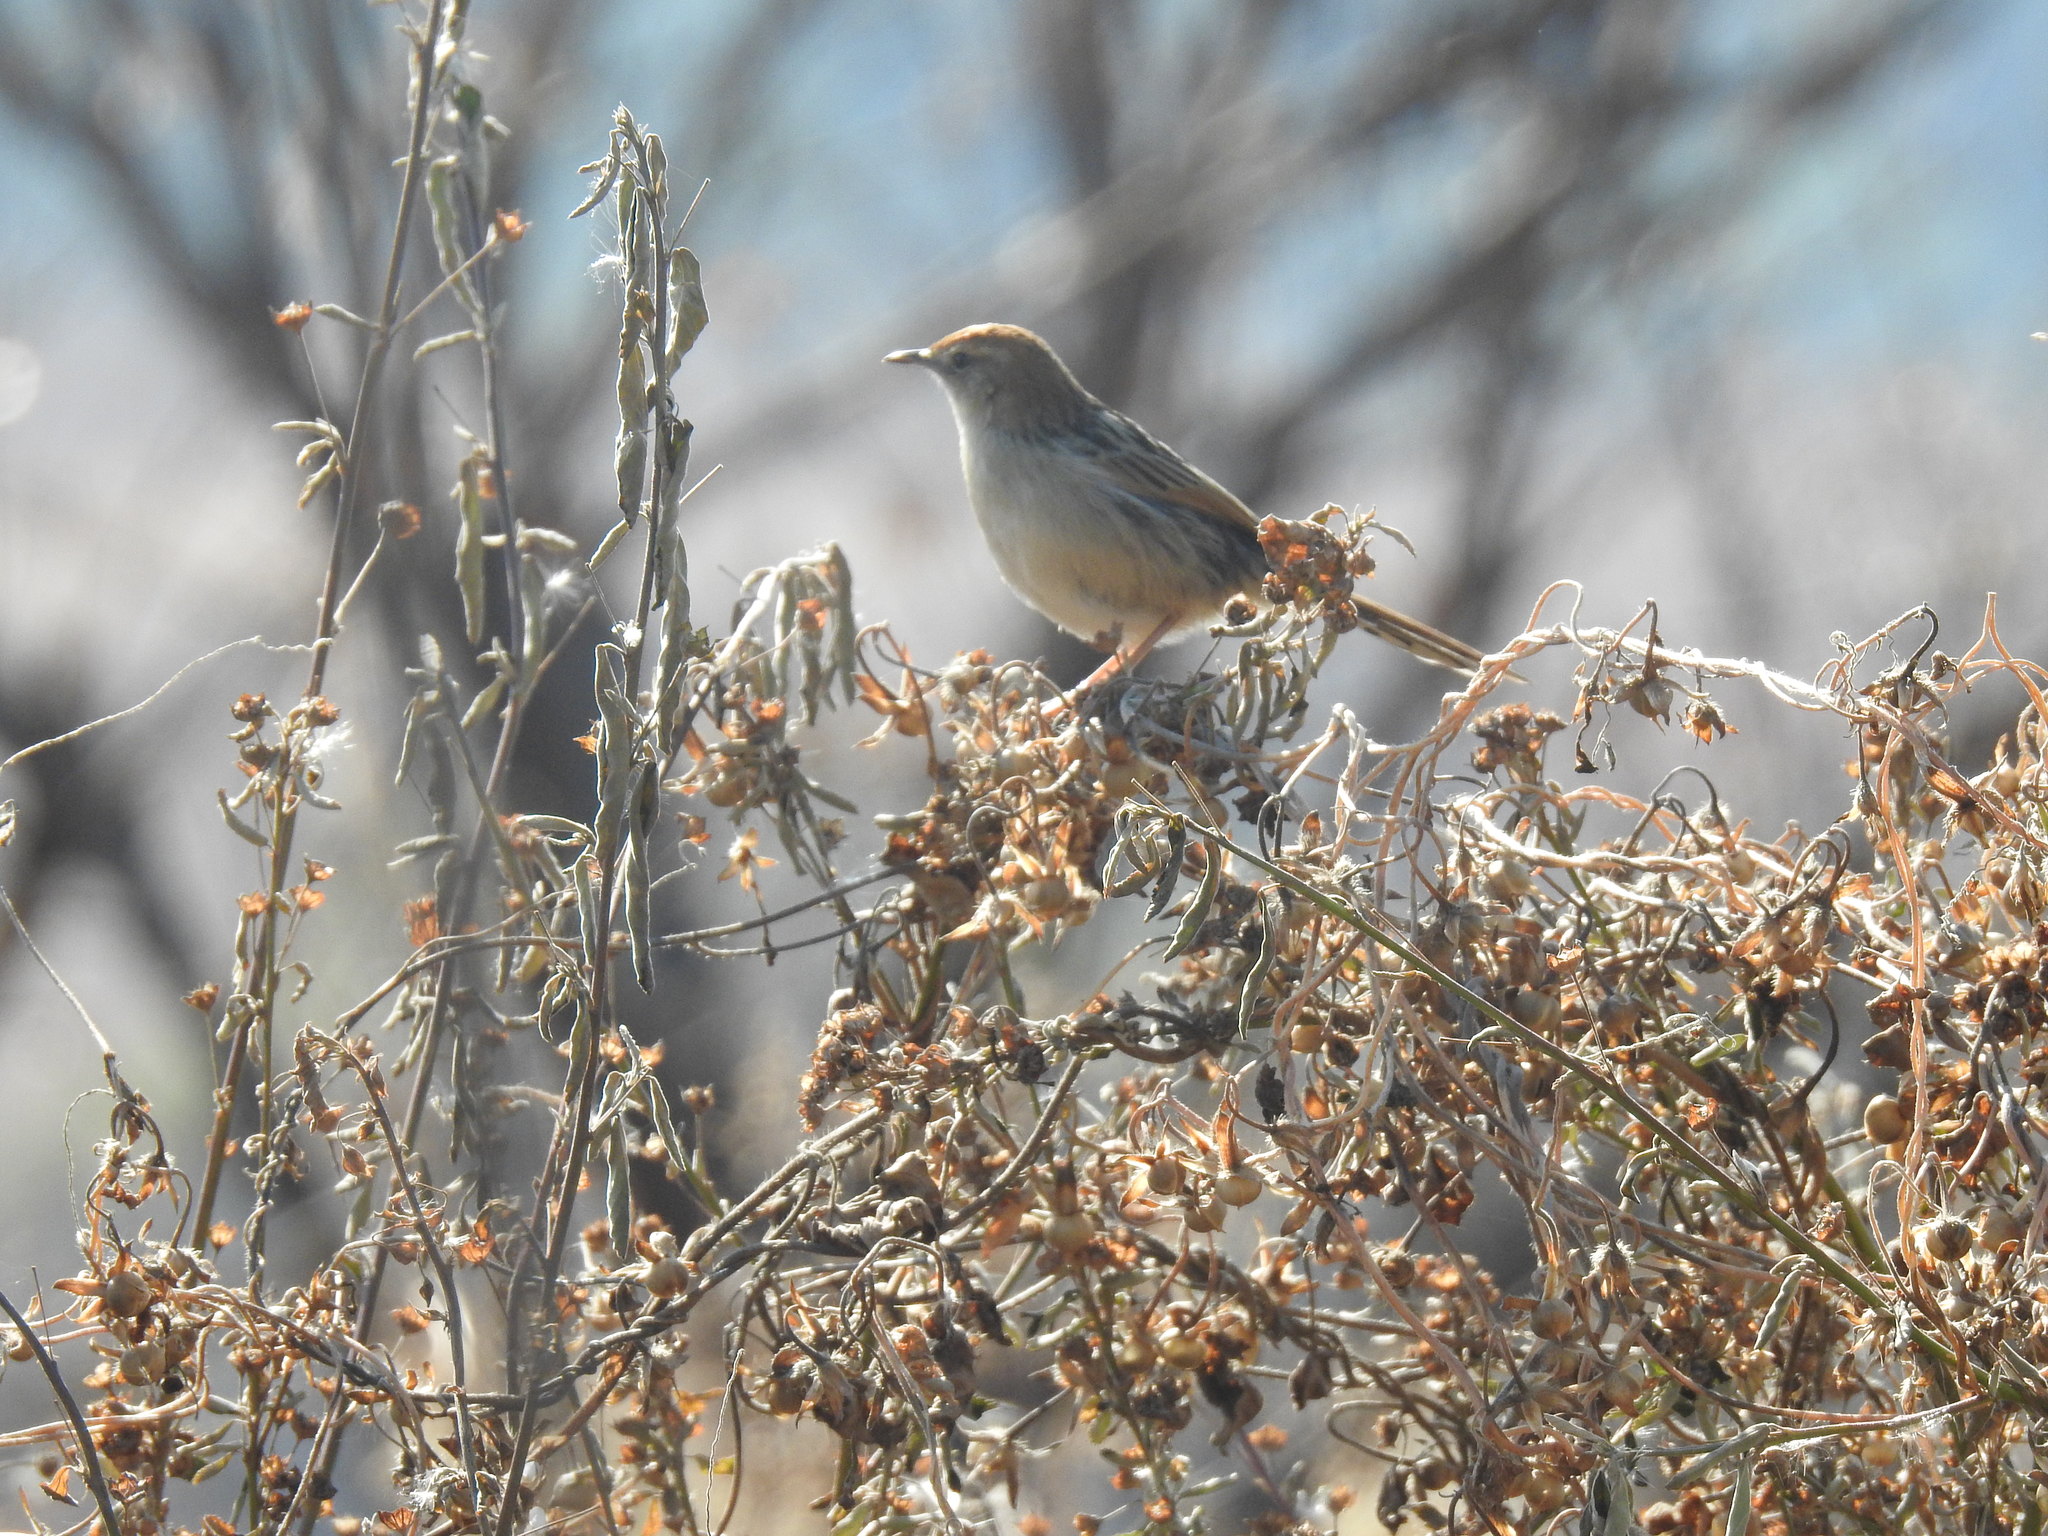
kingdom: Animalia
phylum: Chordata
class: Aves
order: Passeriformes
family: Cisticolidae
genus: Cisticola
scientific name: Cisticola tinniens
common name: Levaillant's cisticola
